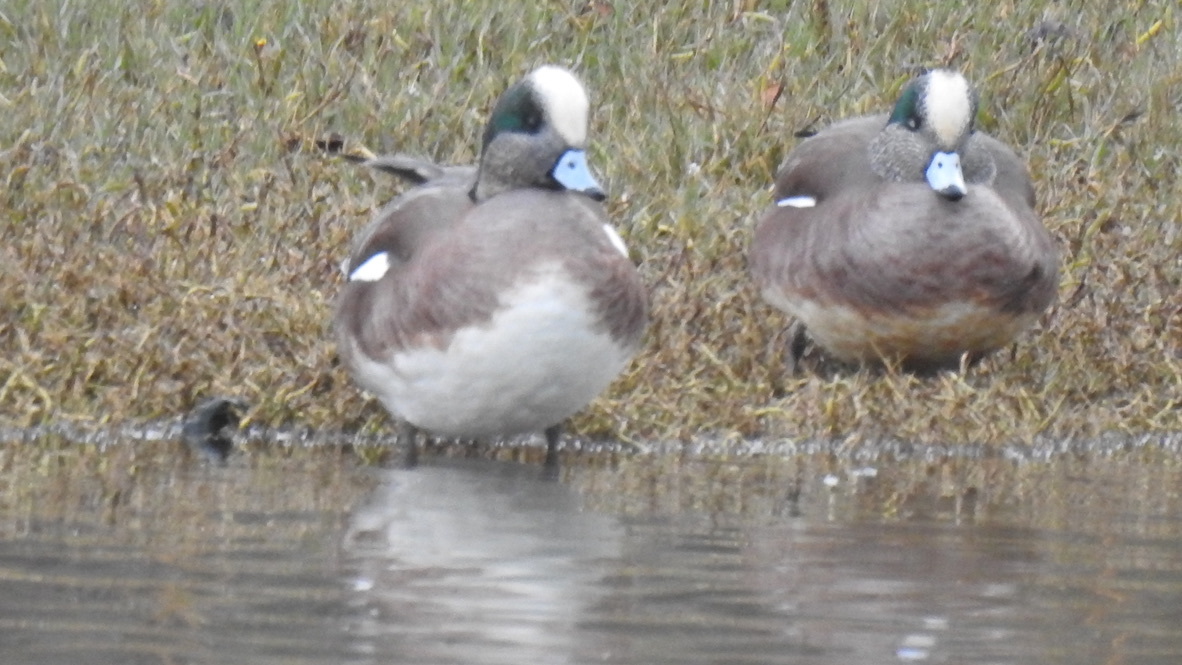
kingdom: Animalia
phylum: Chordata
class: Aves
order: Anseriformes
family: Anatidae
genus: Mareca
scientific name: Mareca americana
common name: American wigeon
